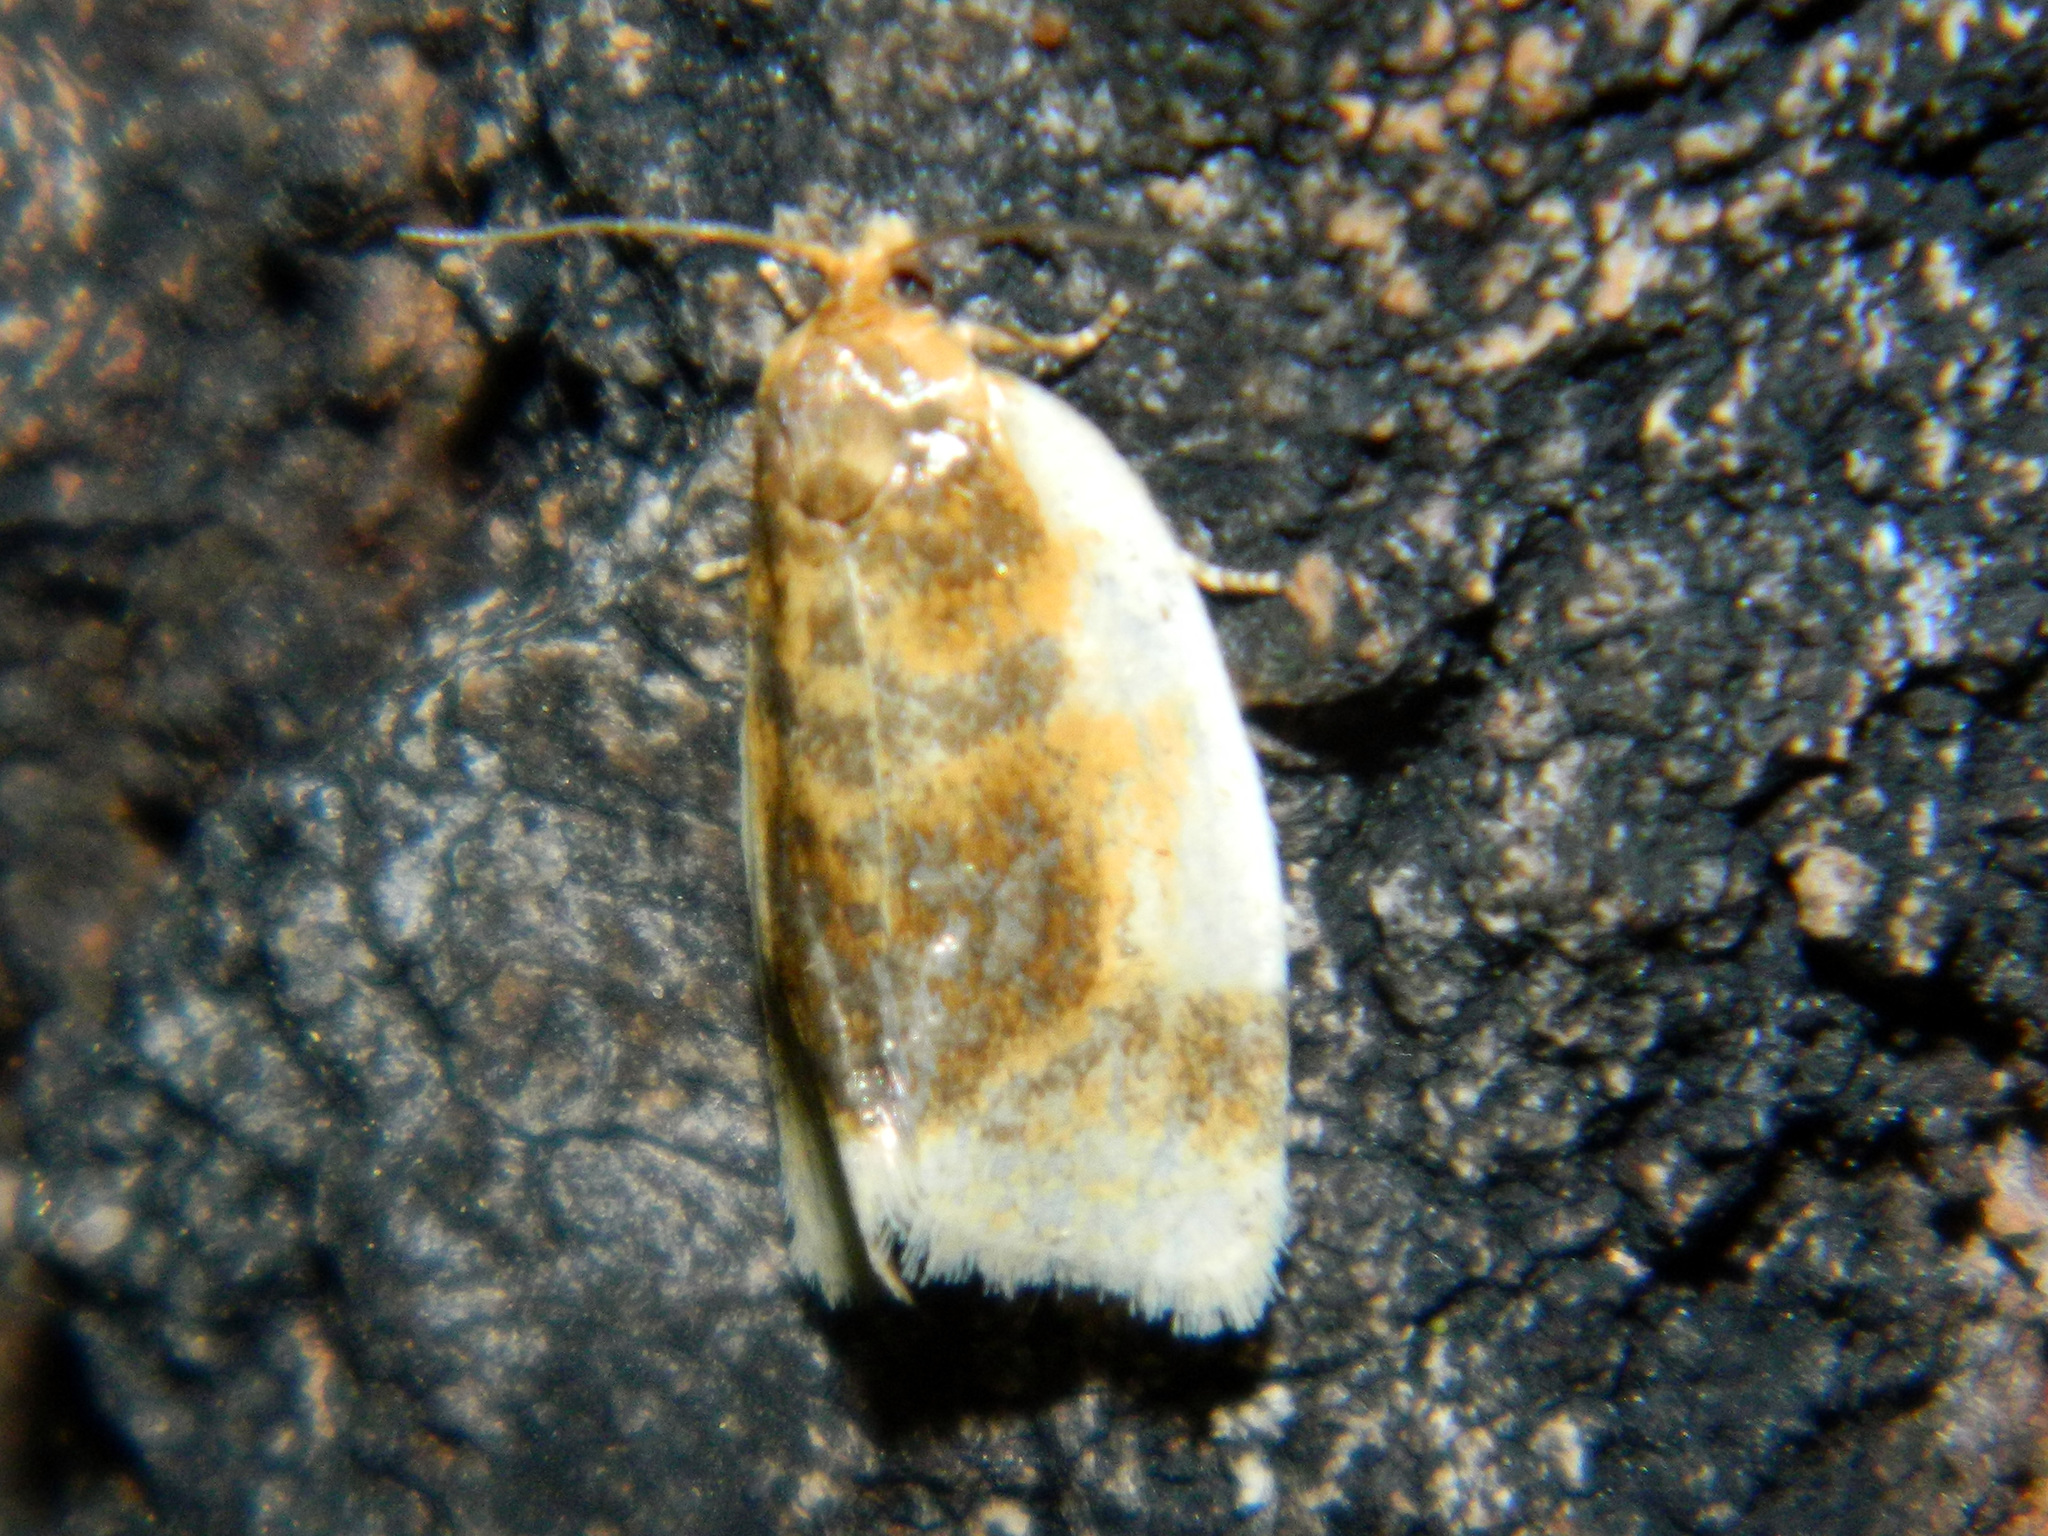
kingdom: Animalia
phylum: Arthropoda
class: Insecta
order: Lepidoptera
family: Tortricidae
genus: Clepsis
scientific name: Clepsis melaleucanus
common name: American apple tortrix
